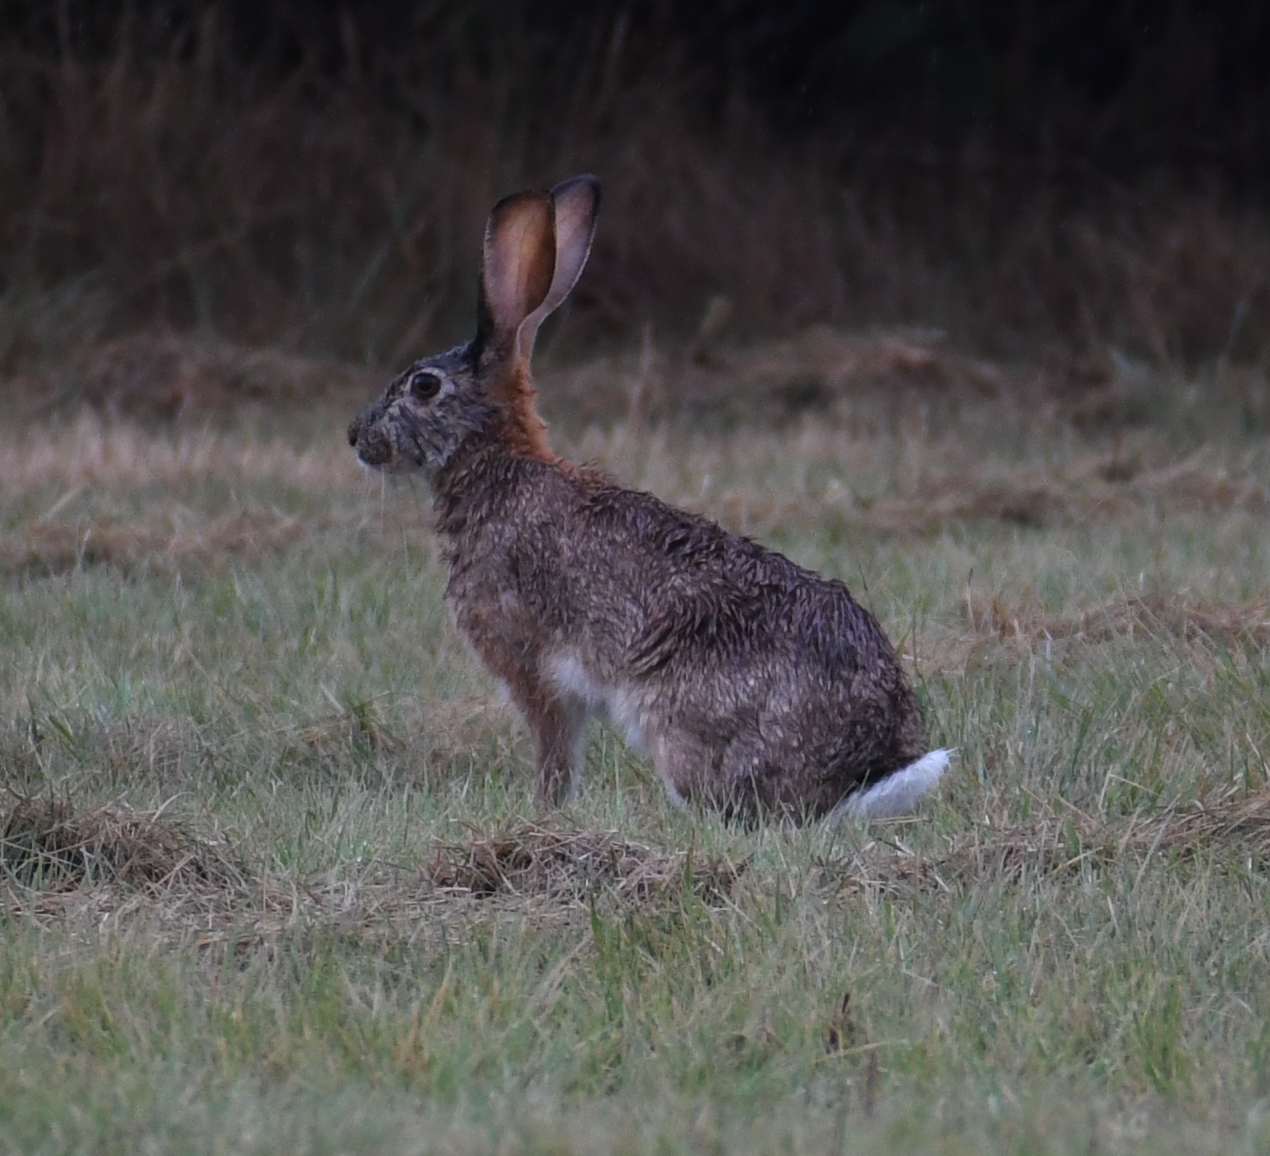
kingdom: Animalia
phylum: Chordata
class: Mammalia
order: Lagomorpha
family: Leporidae
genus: Lepus
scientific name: Lepus saxatilis
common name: Scrub hare
